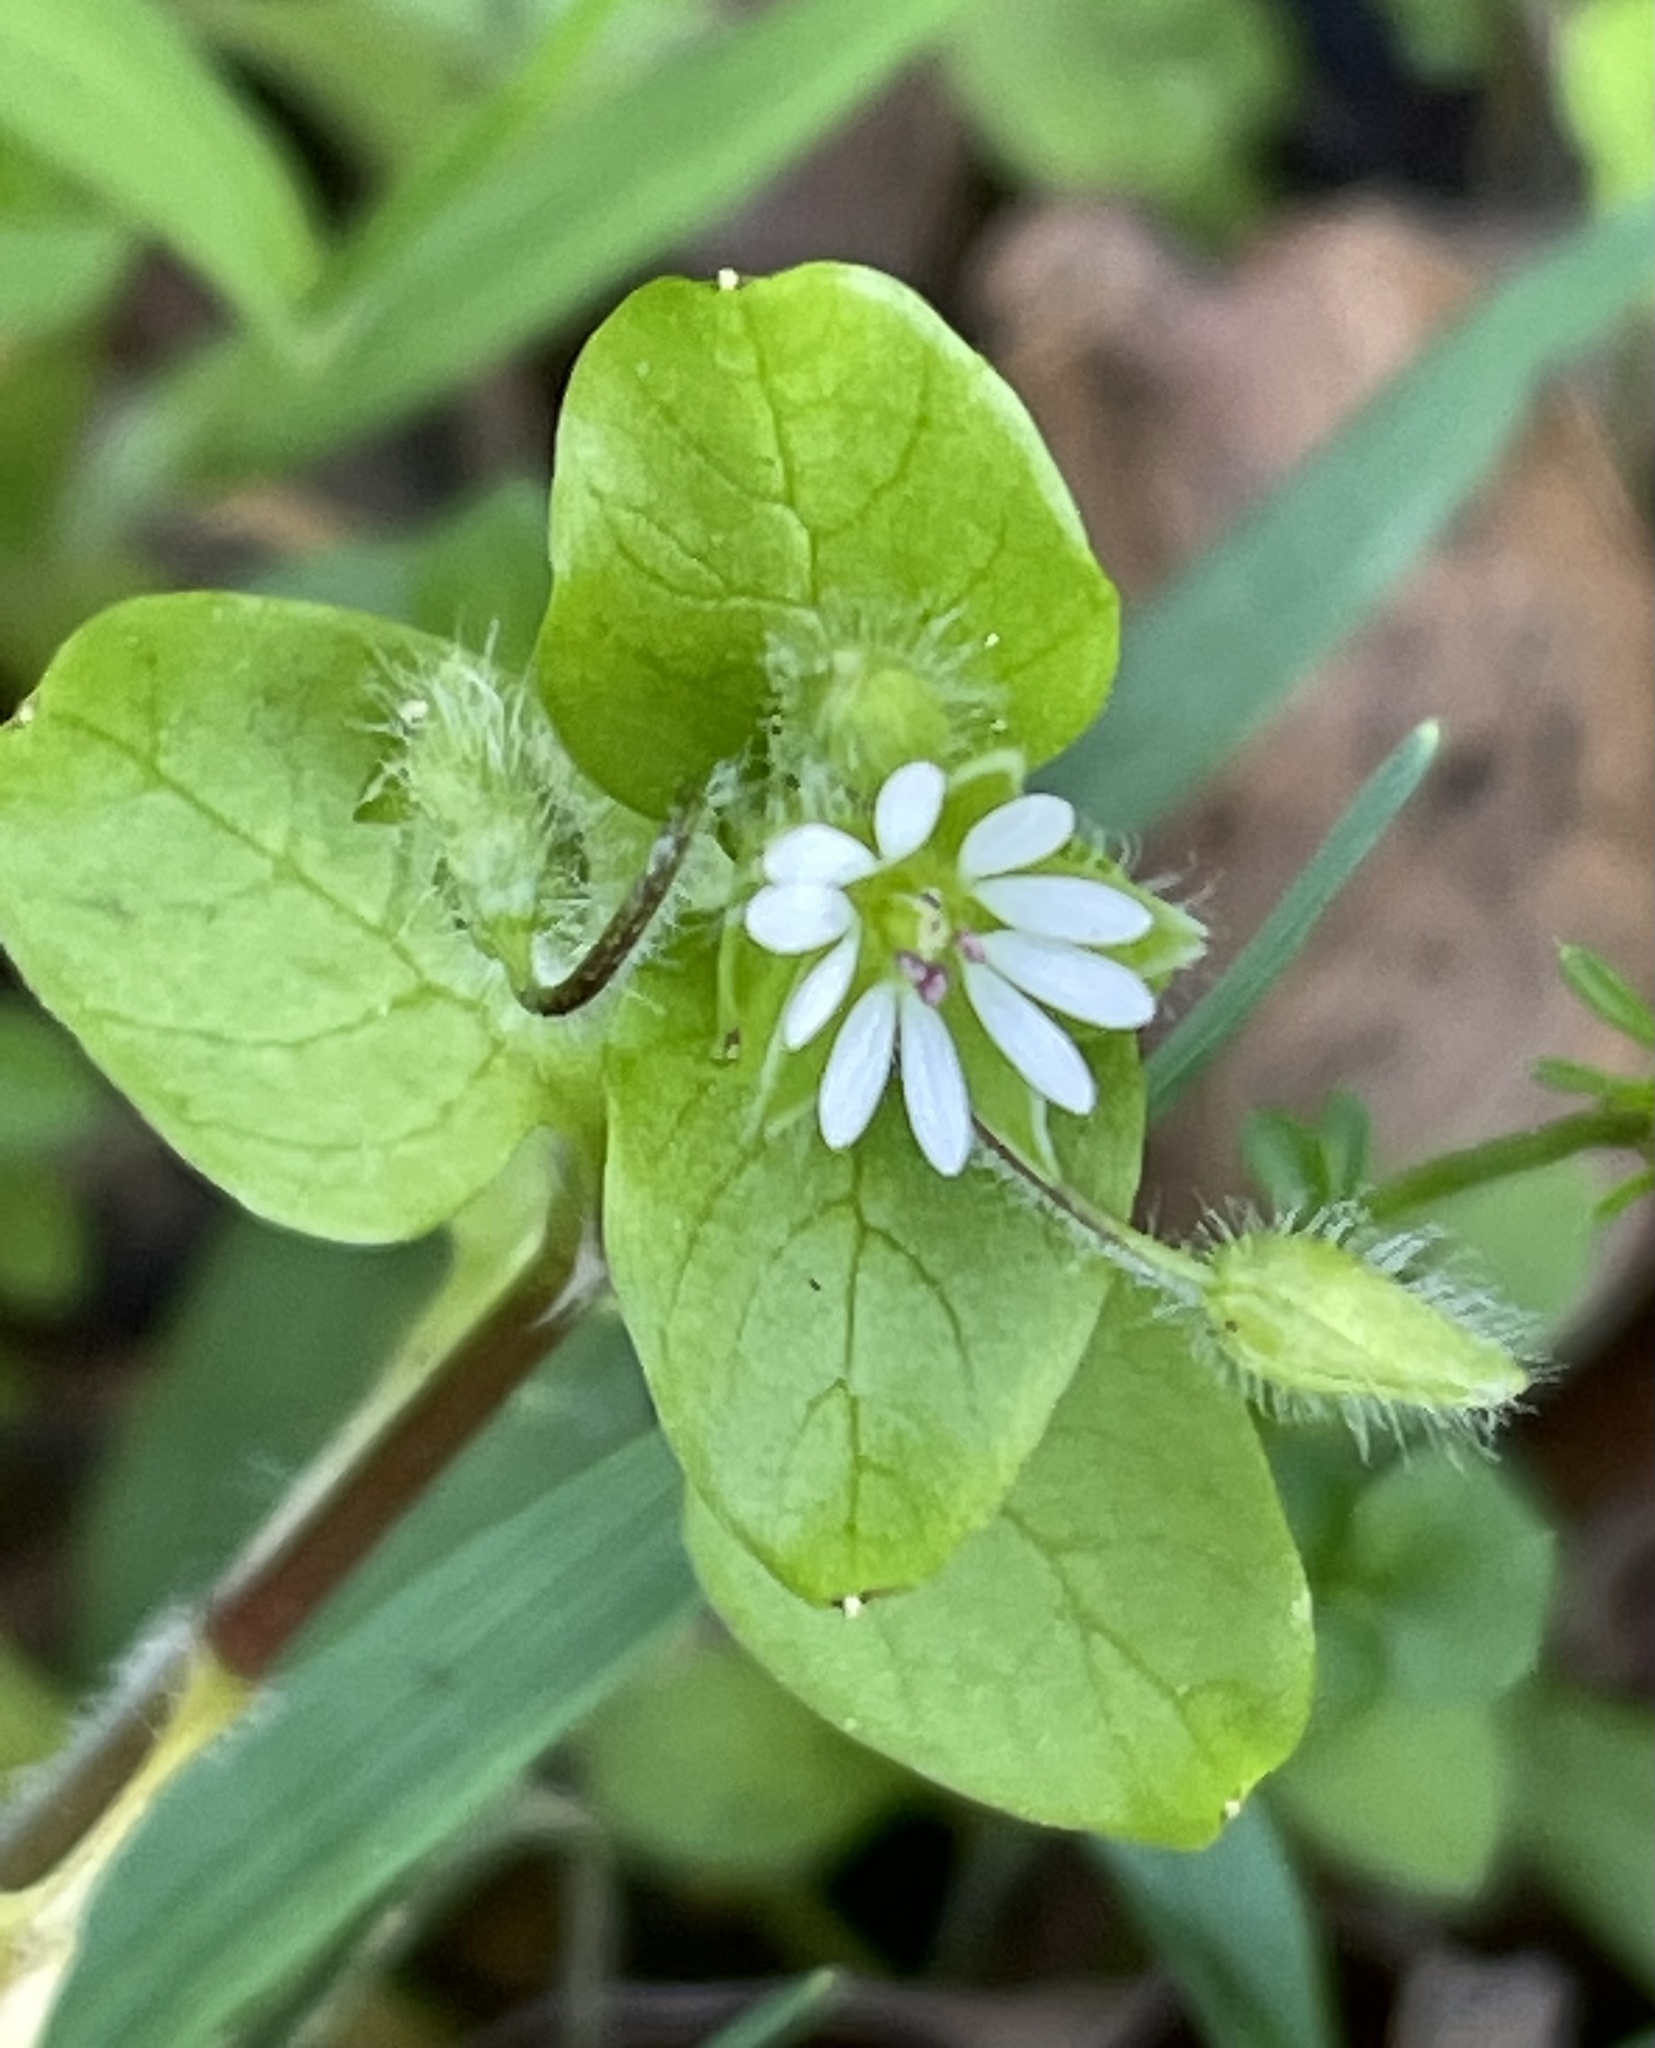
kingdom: Plantae
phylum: Tracheophyta
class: Magnoliopsida
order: Caryophyllales
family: Caryophyllaceae
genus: Stellaria
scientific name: Stellaria media
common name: Common chickweed
